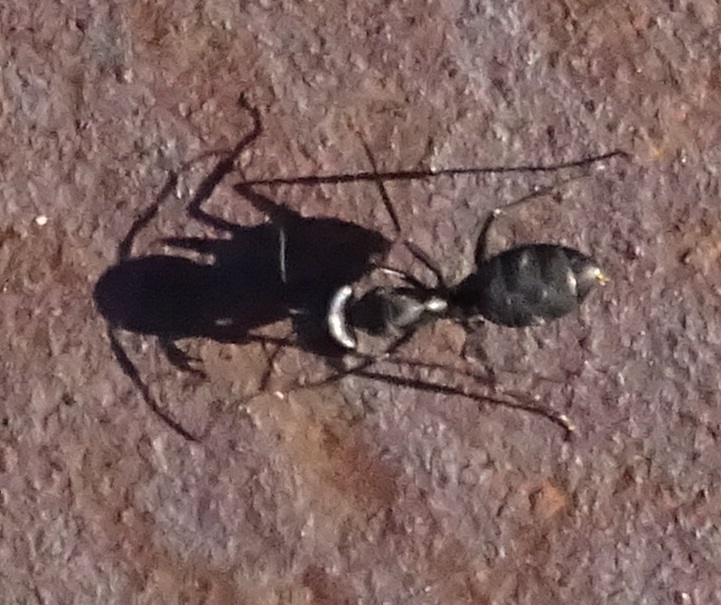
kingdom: Animalia
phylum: Arthropoda
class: Insecta
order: Hymenoptera
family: Formicidae
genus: Camponotus
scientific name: Camponotus feai
